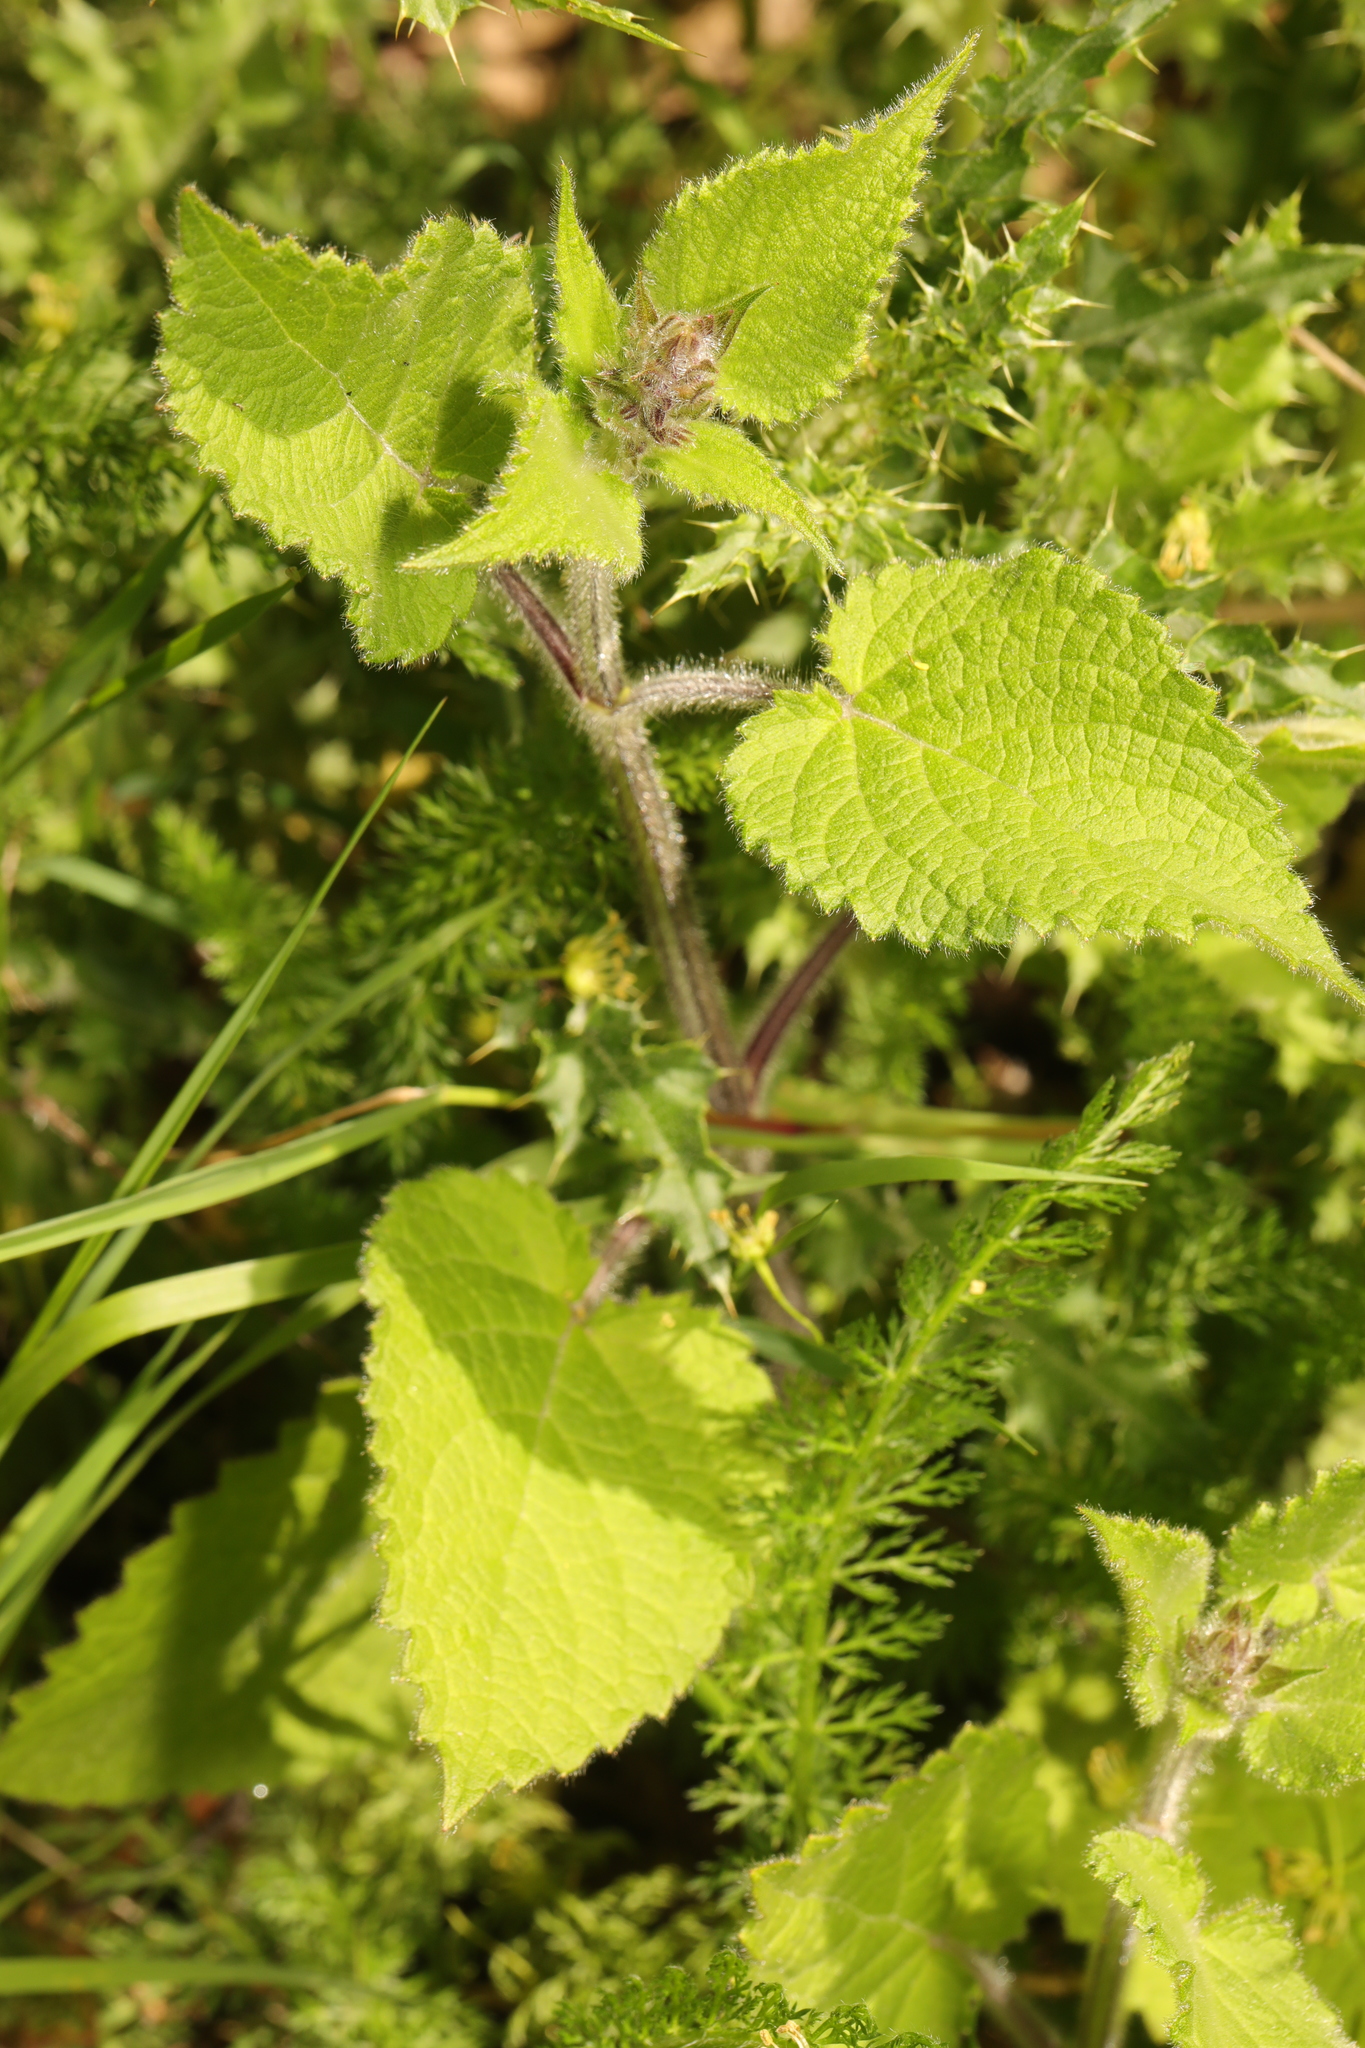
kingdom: Plantae
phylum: Tracheophyta
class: Magnoliopsida
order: Lamiales
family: Lamiaceae
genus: Stachys
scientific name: Stachys sylvatica
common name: Hedge woundwort
